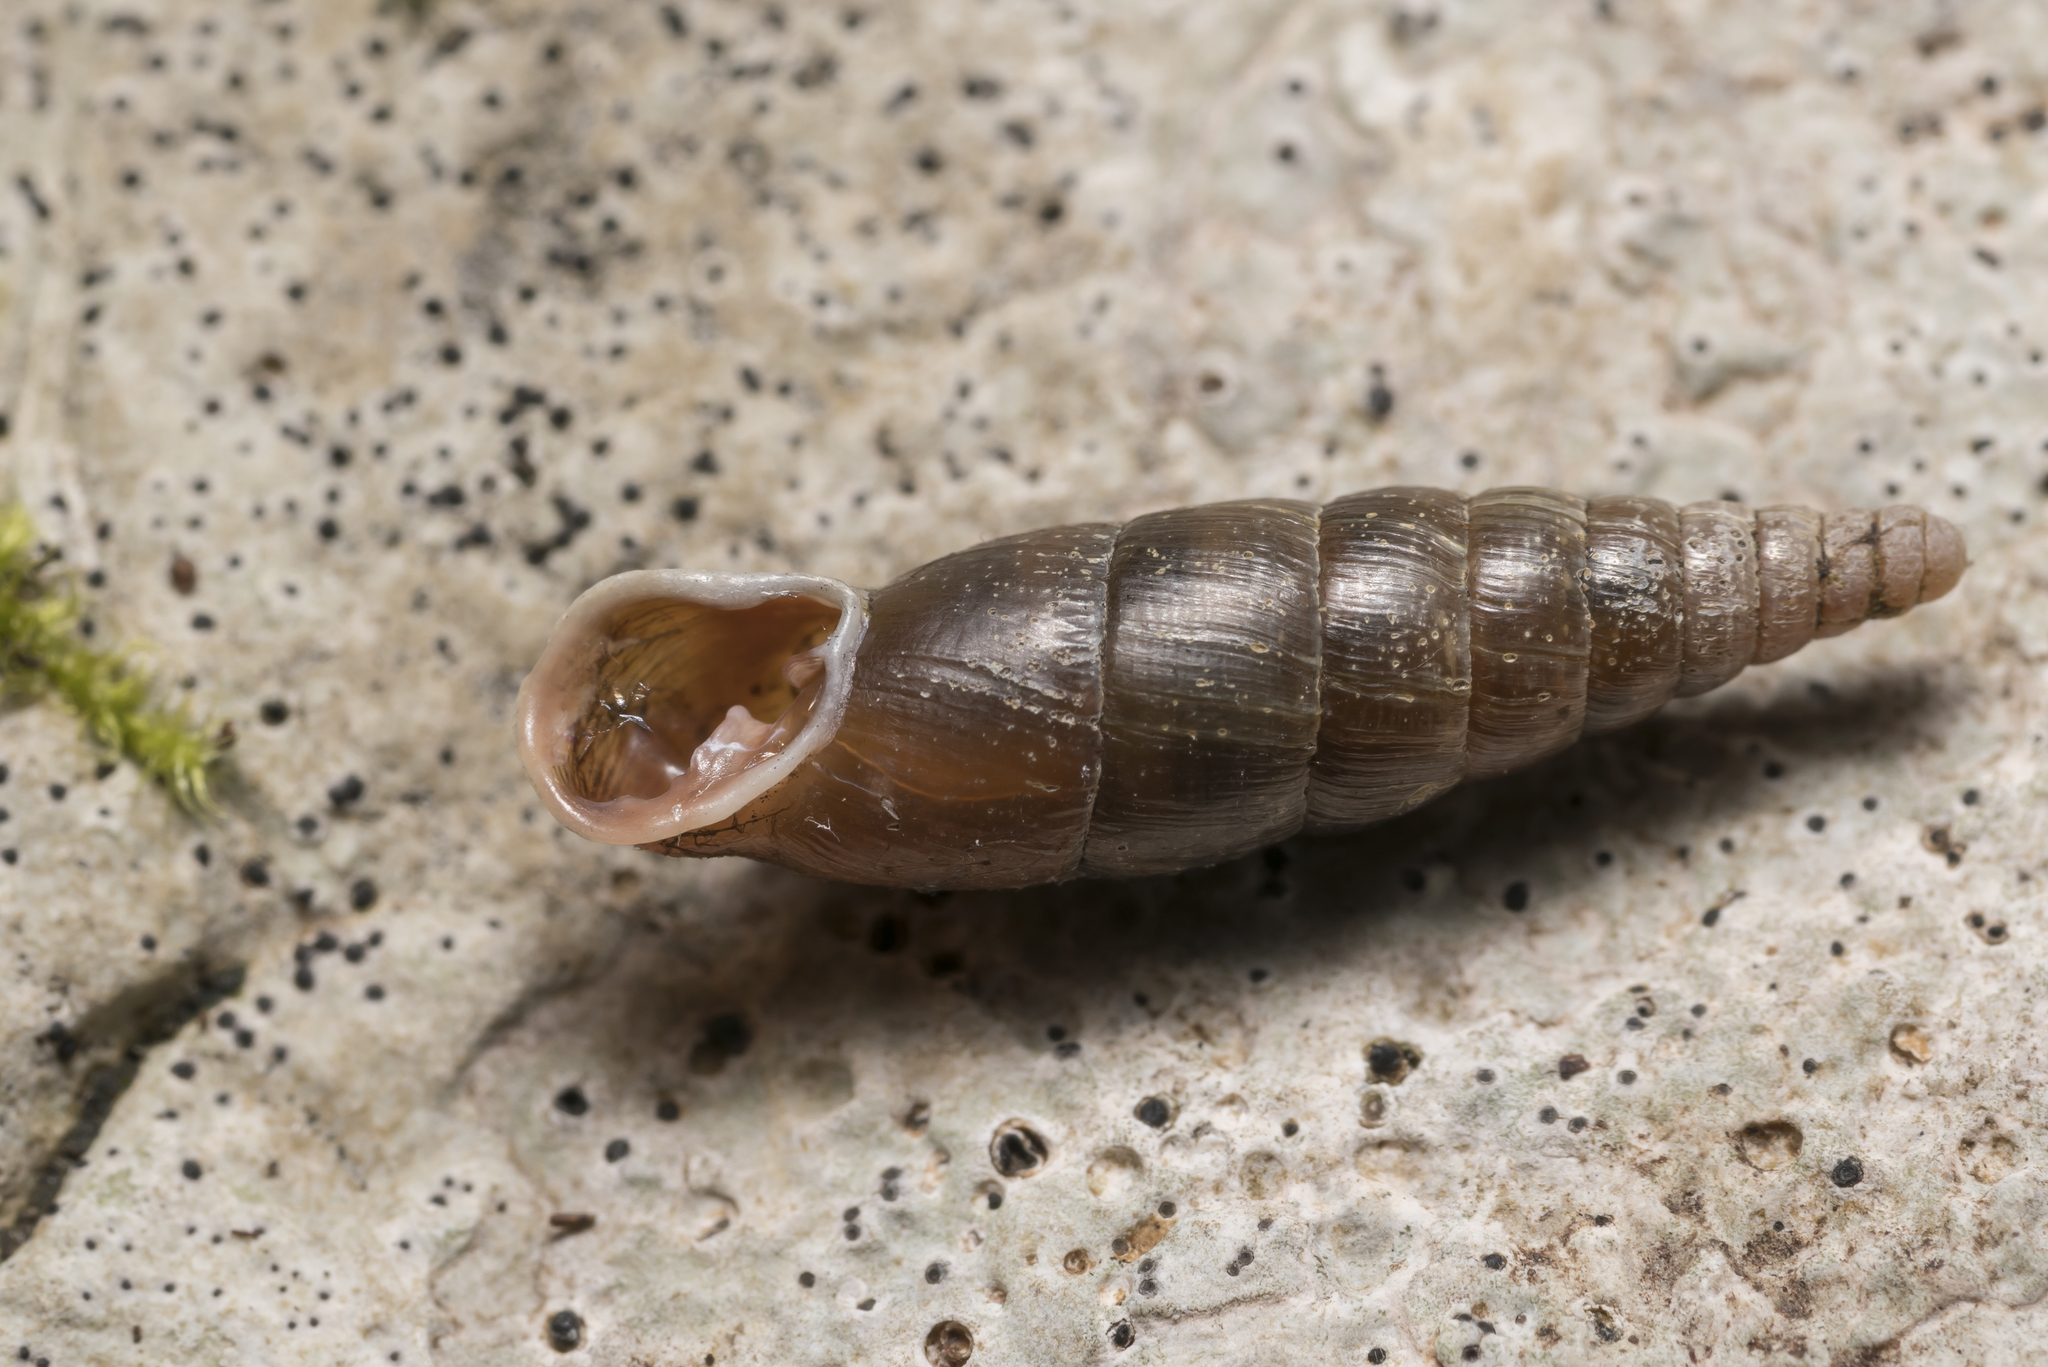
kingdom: Animalia
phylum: Mollusca
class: Gastropoda
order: Stylommatophora
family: Clausiliidae
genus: Cochlodina
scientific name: Cochlodina laminata
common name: Plaited door snail
